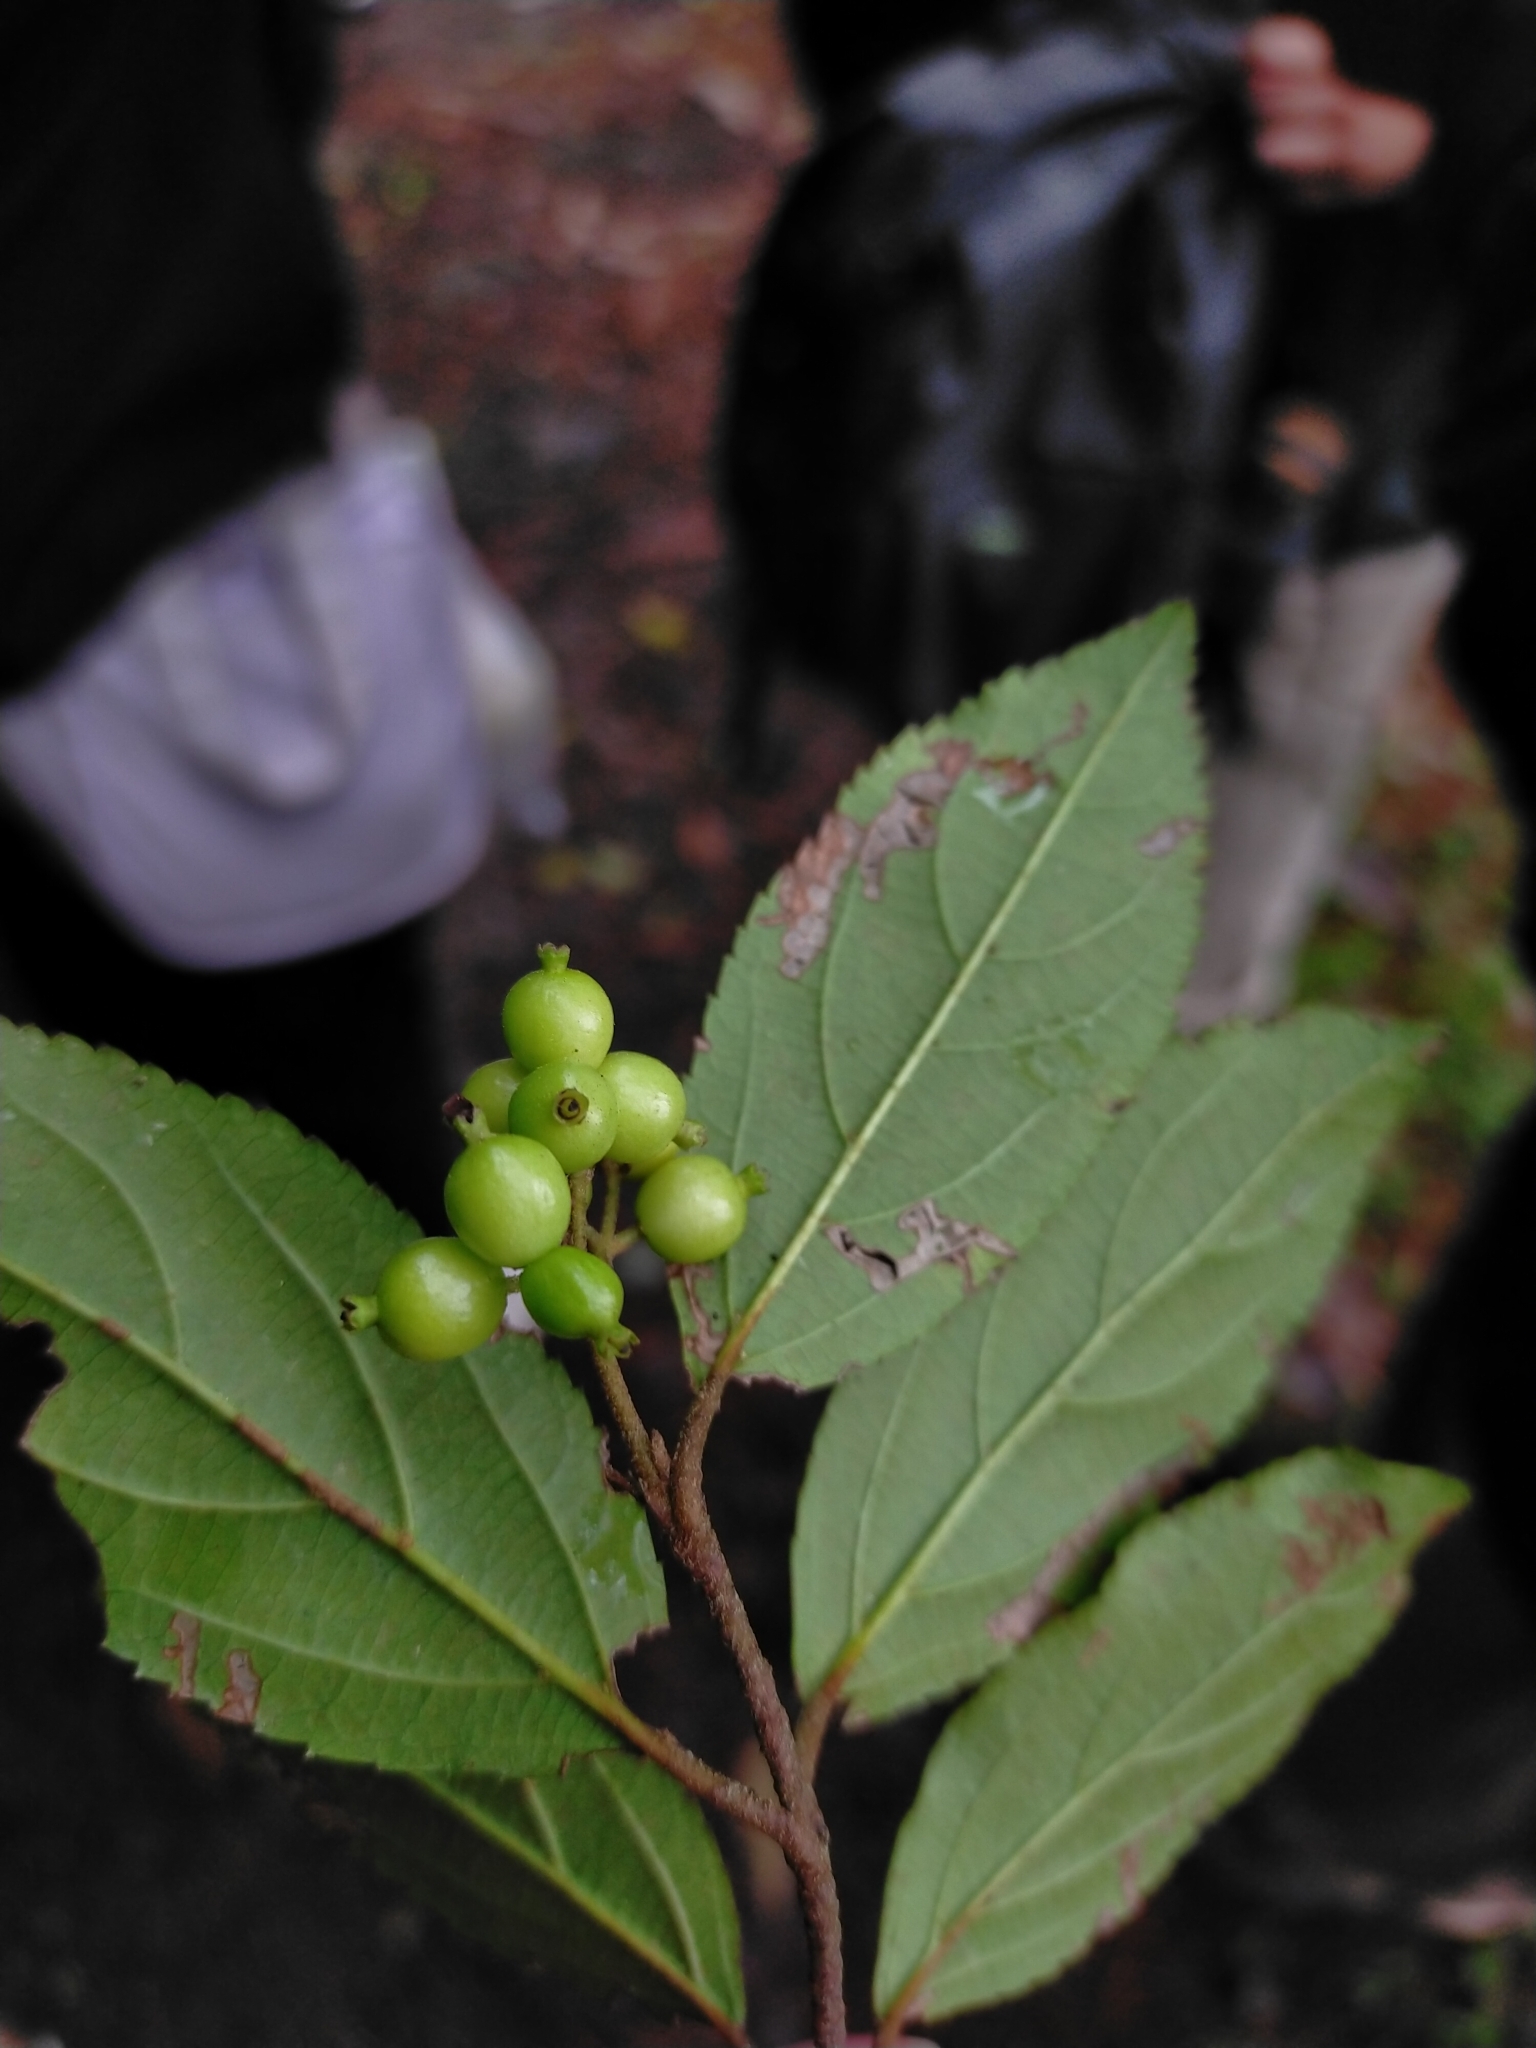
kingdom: Plantae
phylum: Tracheophyta
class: Magnoliopsida
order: Dipsacales
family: Viburnaceae
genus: Viburnum
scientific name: Viburnum taitoense
